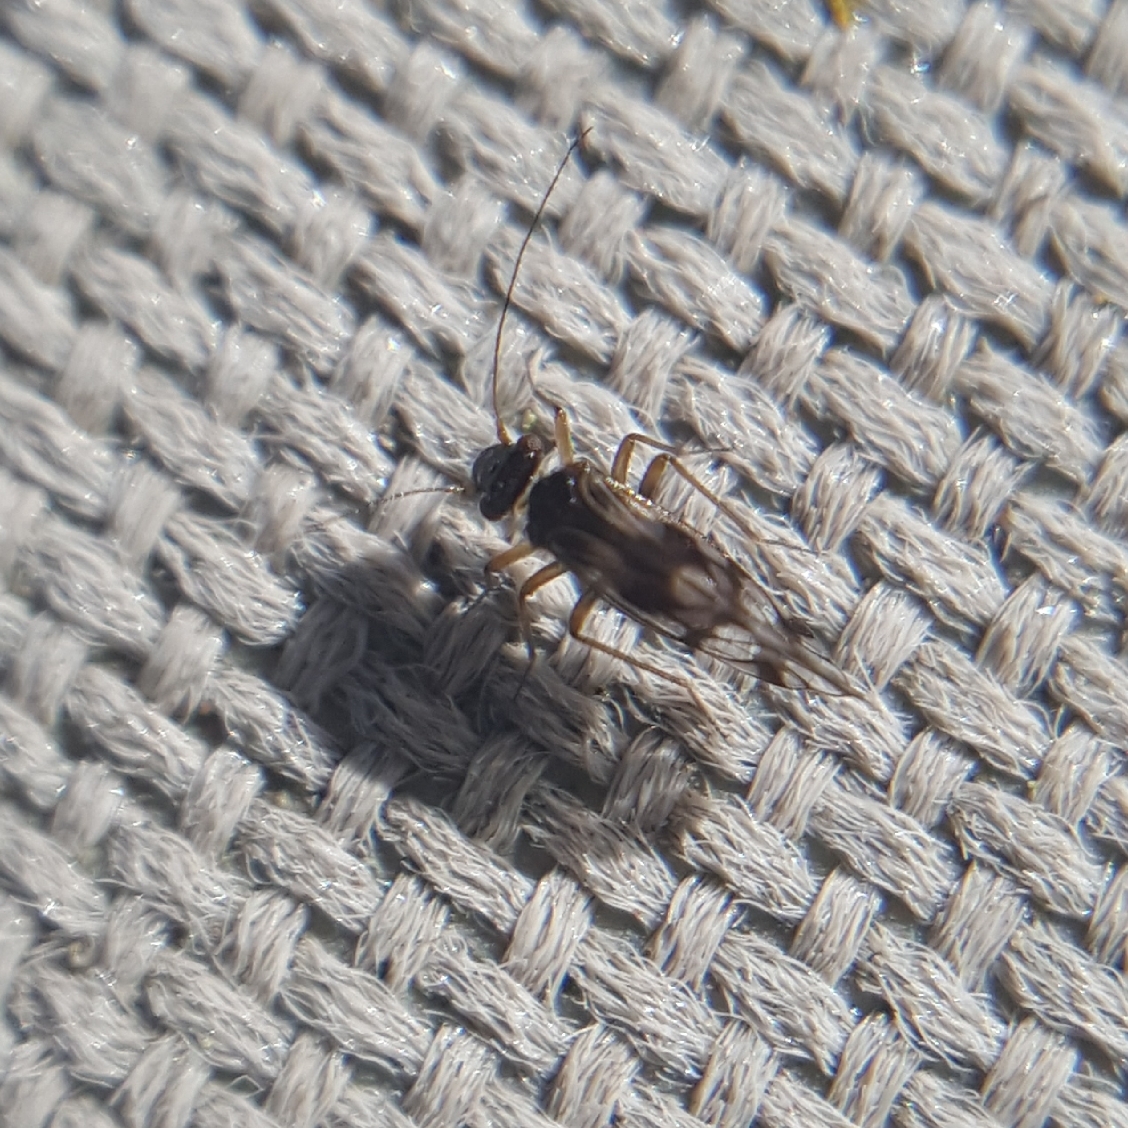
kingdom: Animalia
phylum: Arthropoda
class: Insecta
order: Psocodea
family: Stenopsocidae
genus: Graphopsocus
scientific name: Graphopsocus cruciatus
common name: Lizard bark louse
